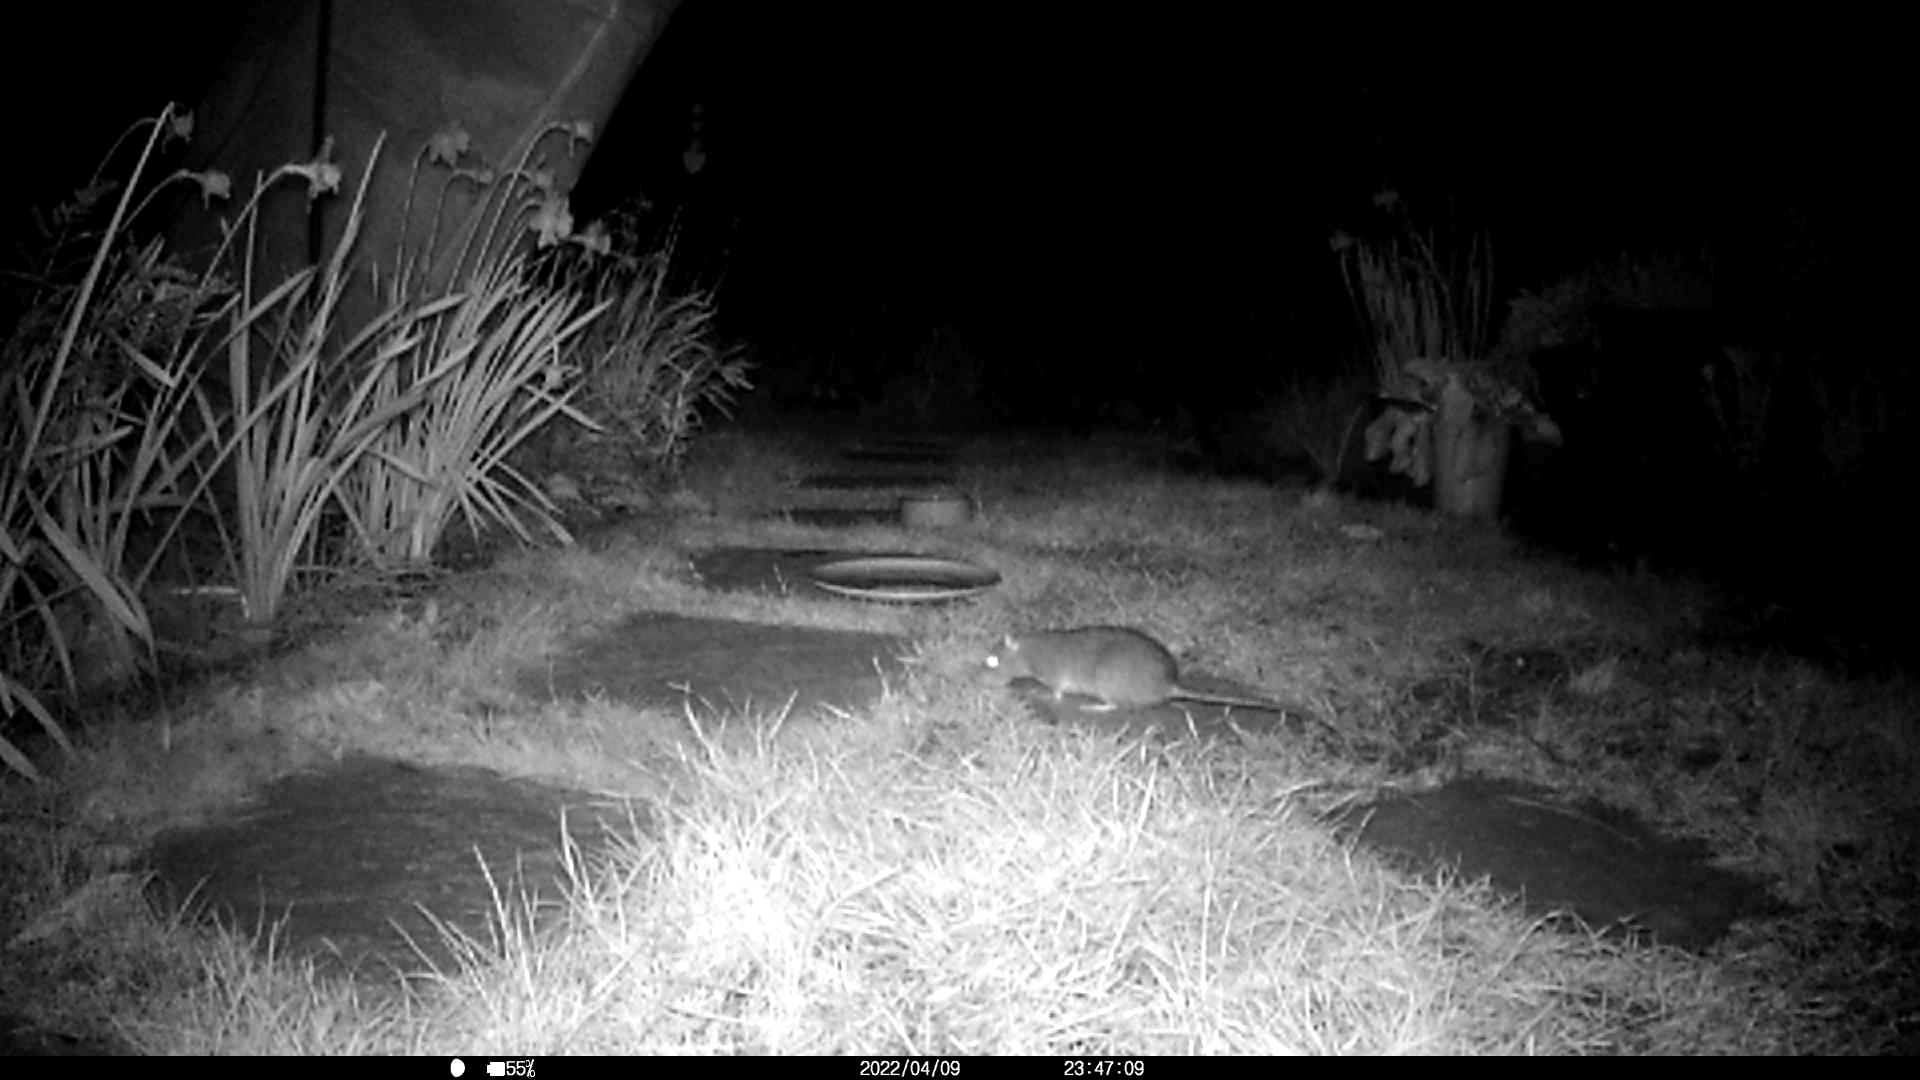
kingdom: Animalia
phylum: Chordata
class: Mammalia
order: Rodentia
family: Muridae
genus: Rattus
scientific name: Rattus norvegicus
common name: Brown rat
